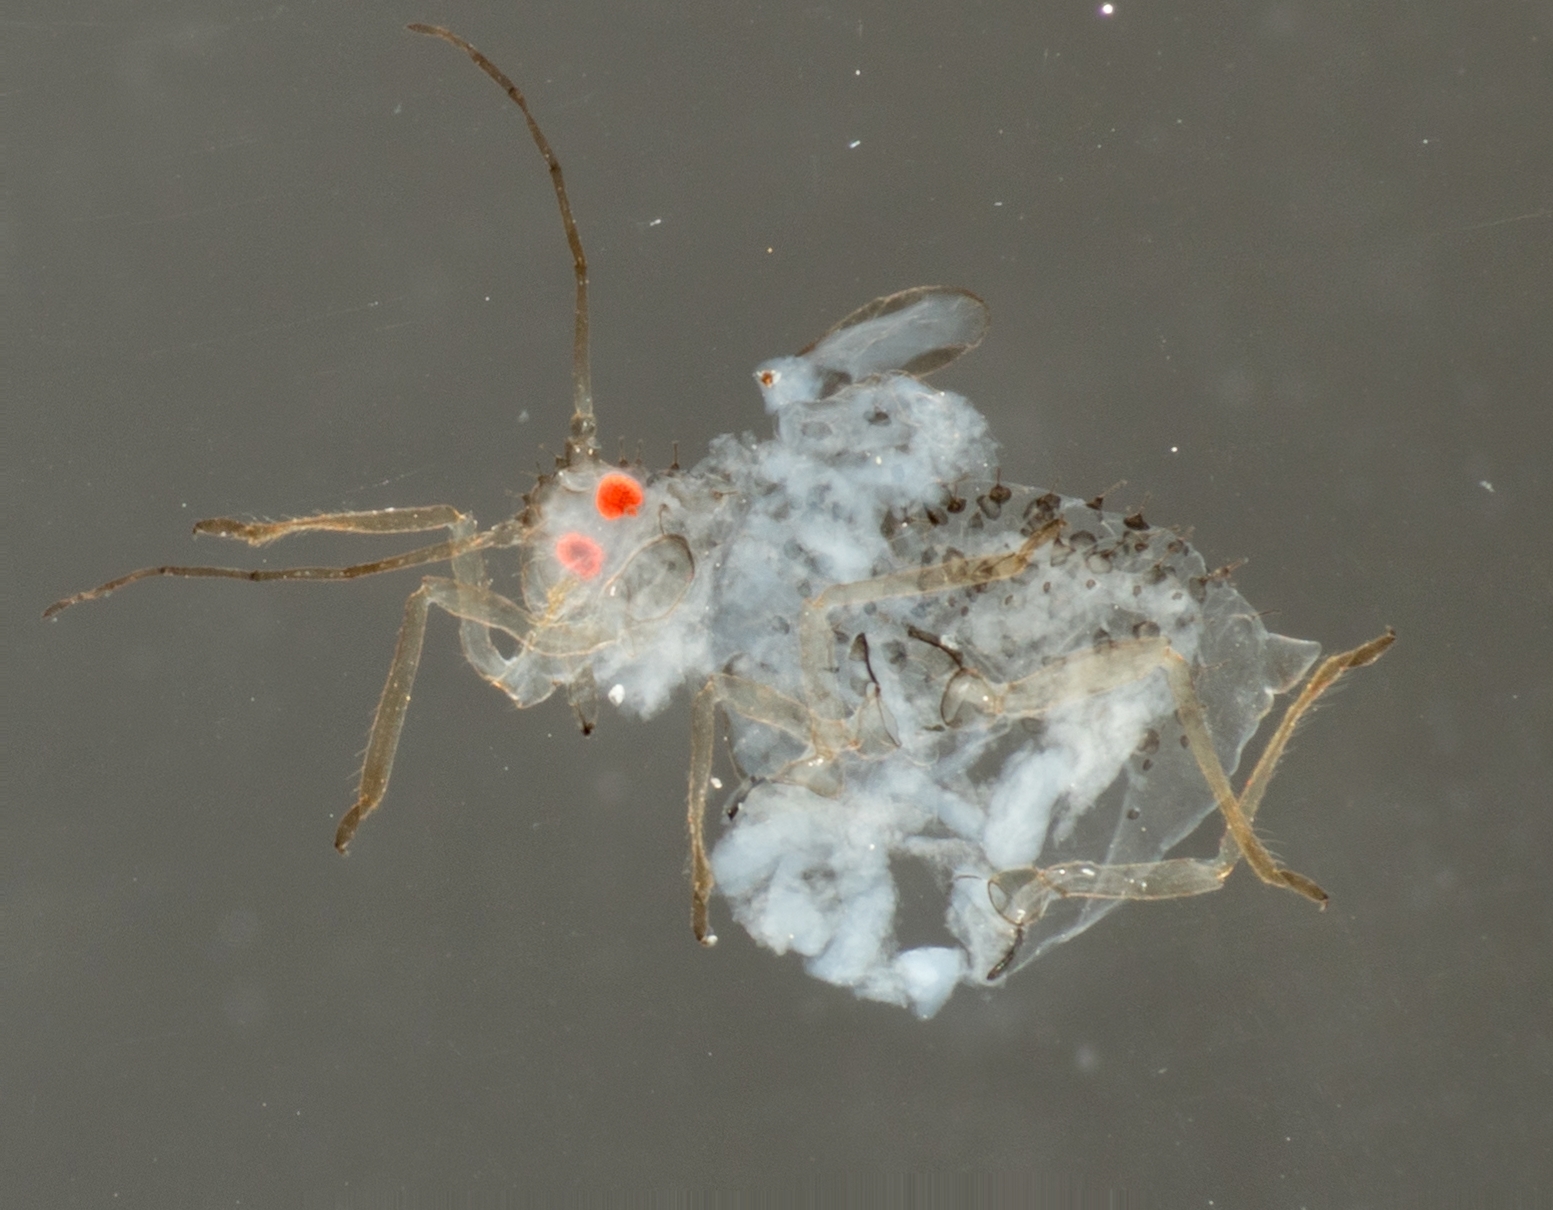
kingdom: Animalia
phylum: Arthropoda
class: Insecta
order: Hemiptera
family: Aphididae
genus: Therioaphis
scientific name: Therioaphis trifolii
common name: Spotted alfalfa aphid
